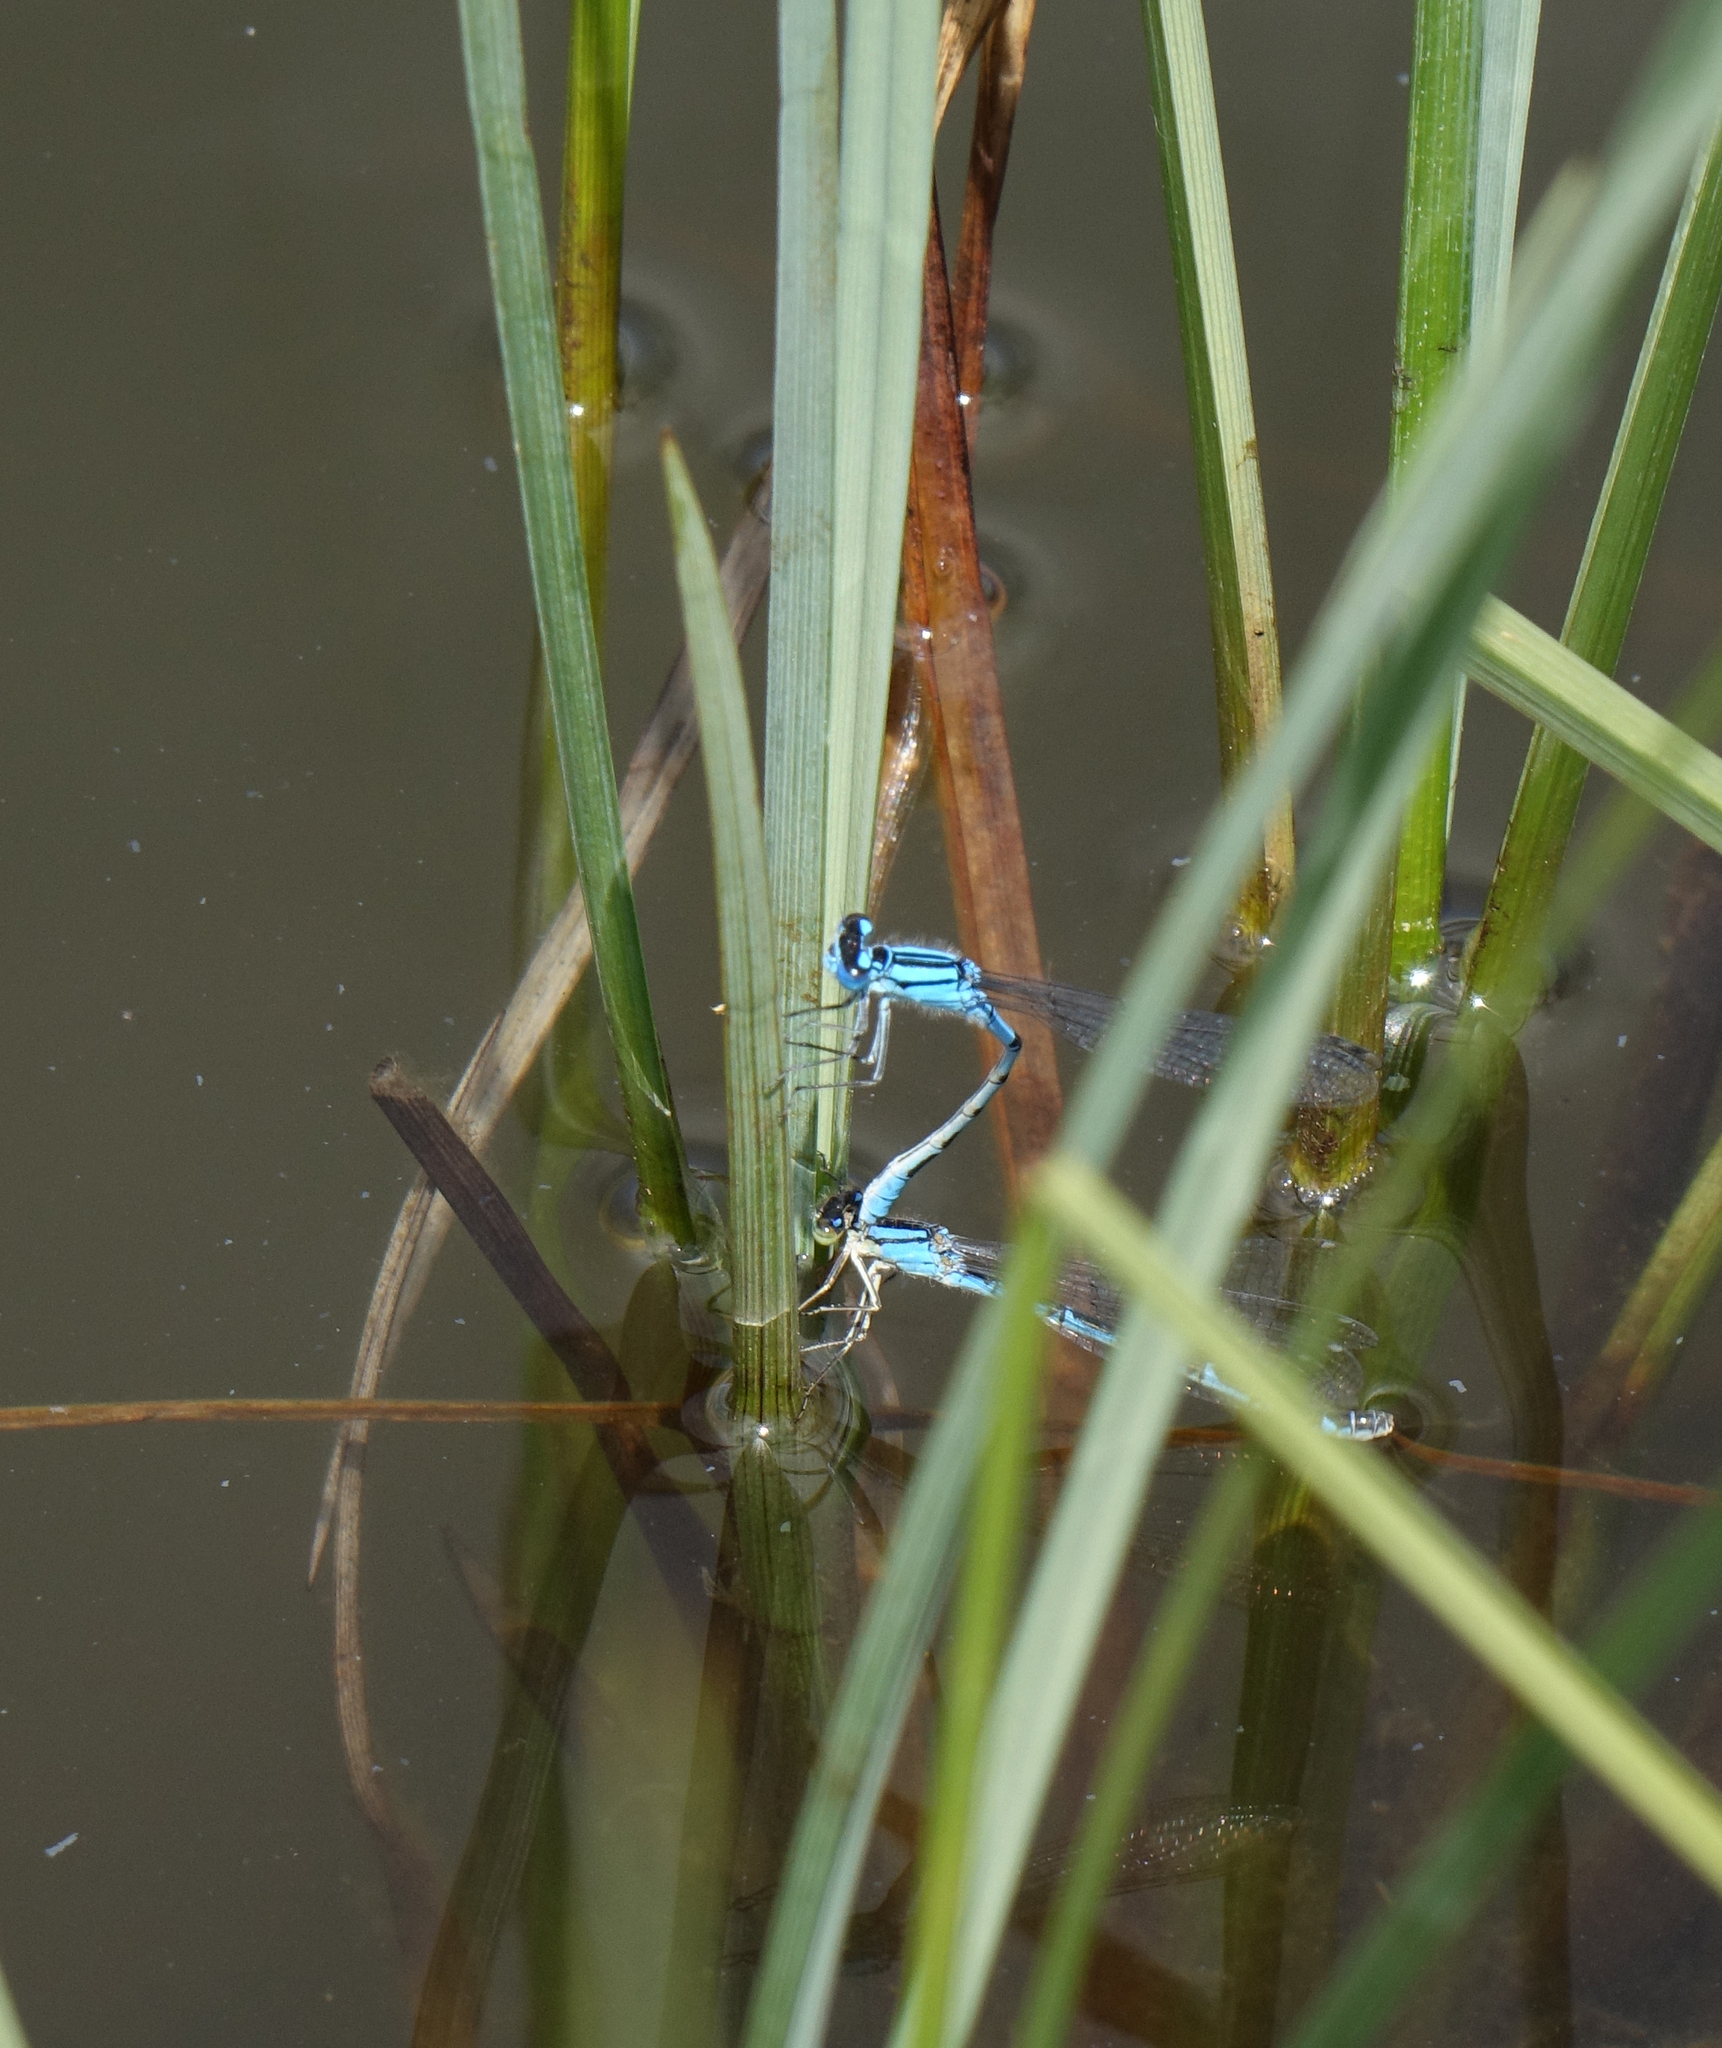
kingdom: Animalia
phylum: Arthropoda
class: Insecta
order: Odonata
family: Coenagrionidae
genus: Enallagma
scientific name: Enallagma cyathigerum
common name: Common blue damselfly
